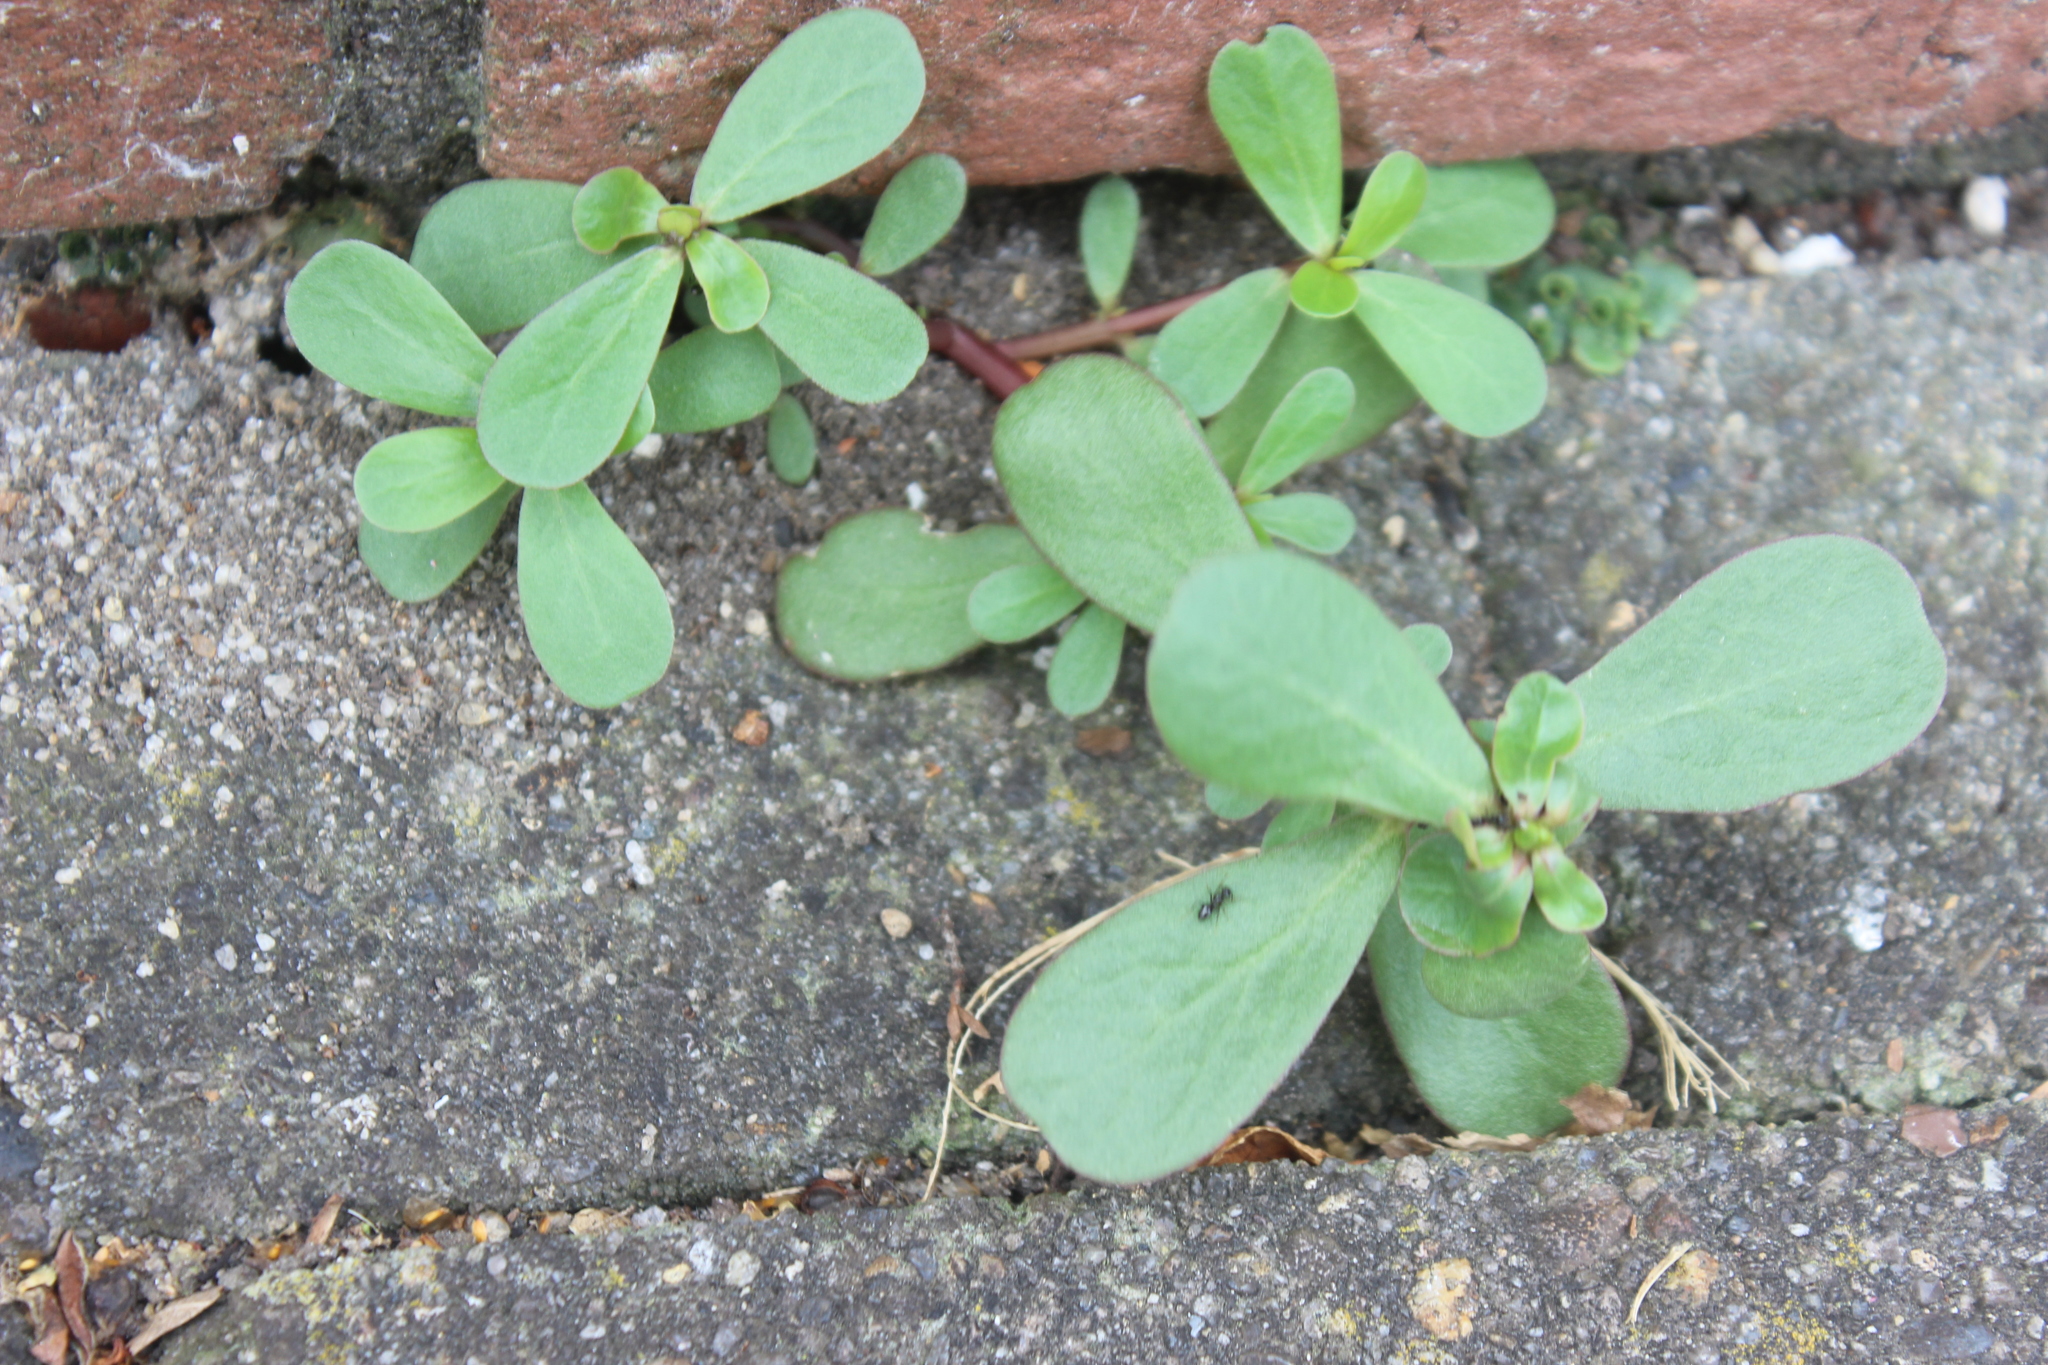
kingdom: Plantae
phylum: Tracheophyta
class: Magnoliopsida
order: Caryophyllales
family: Portulacaceae
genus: Portulaca
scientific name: Portulaca oleracea
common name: Common purslane
